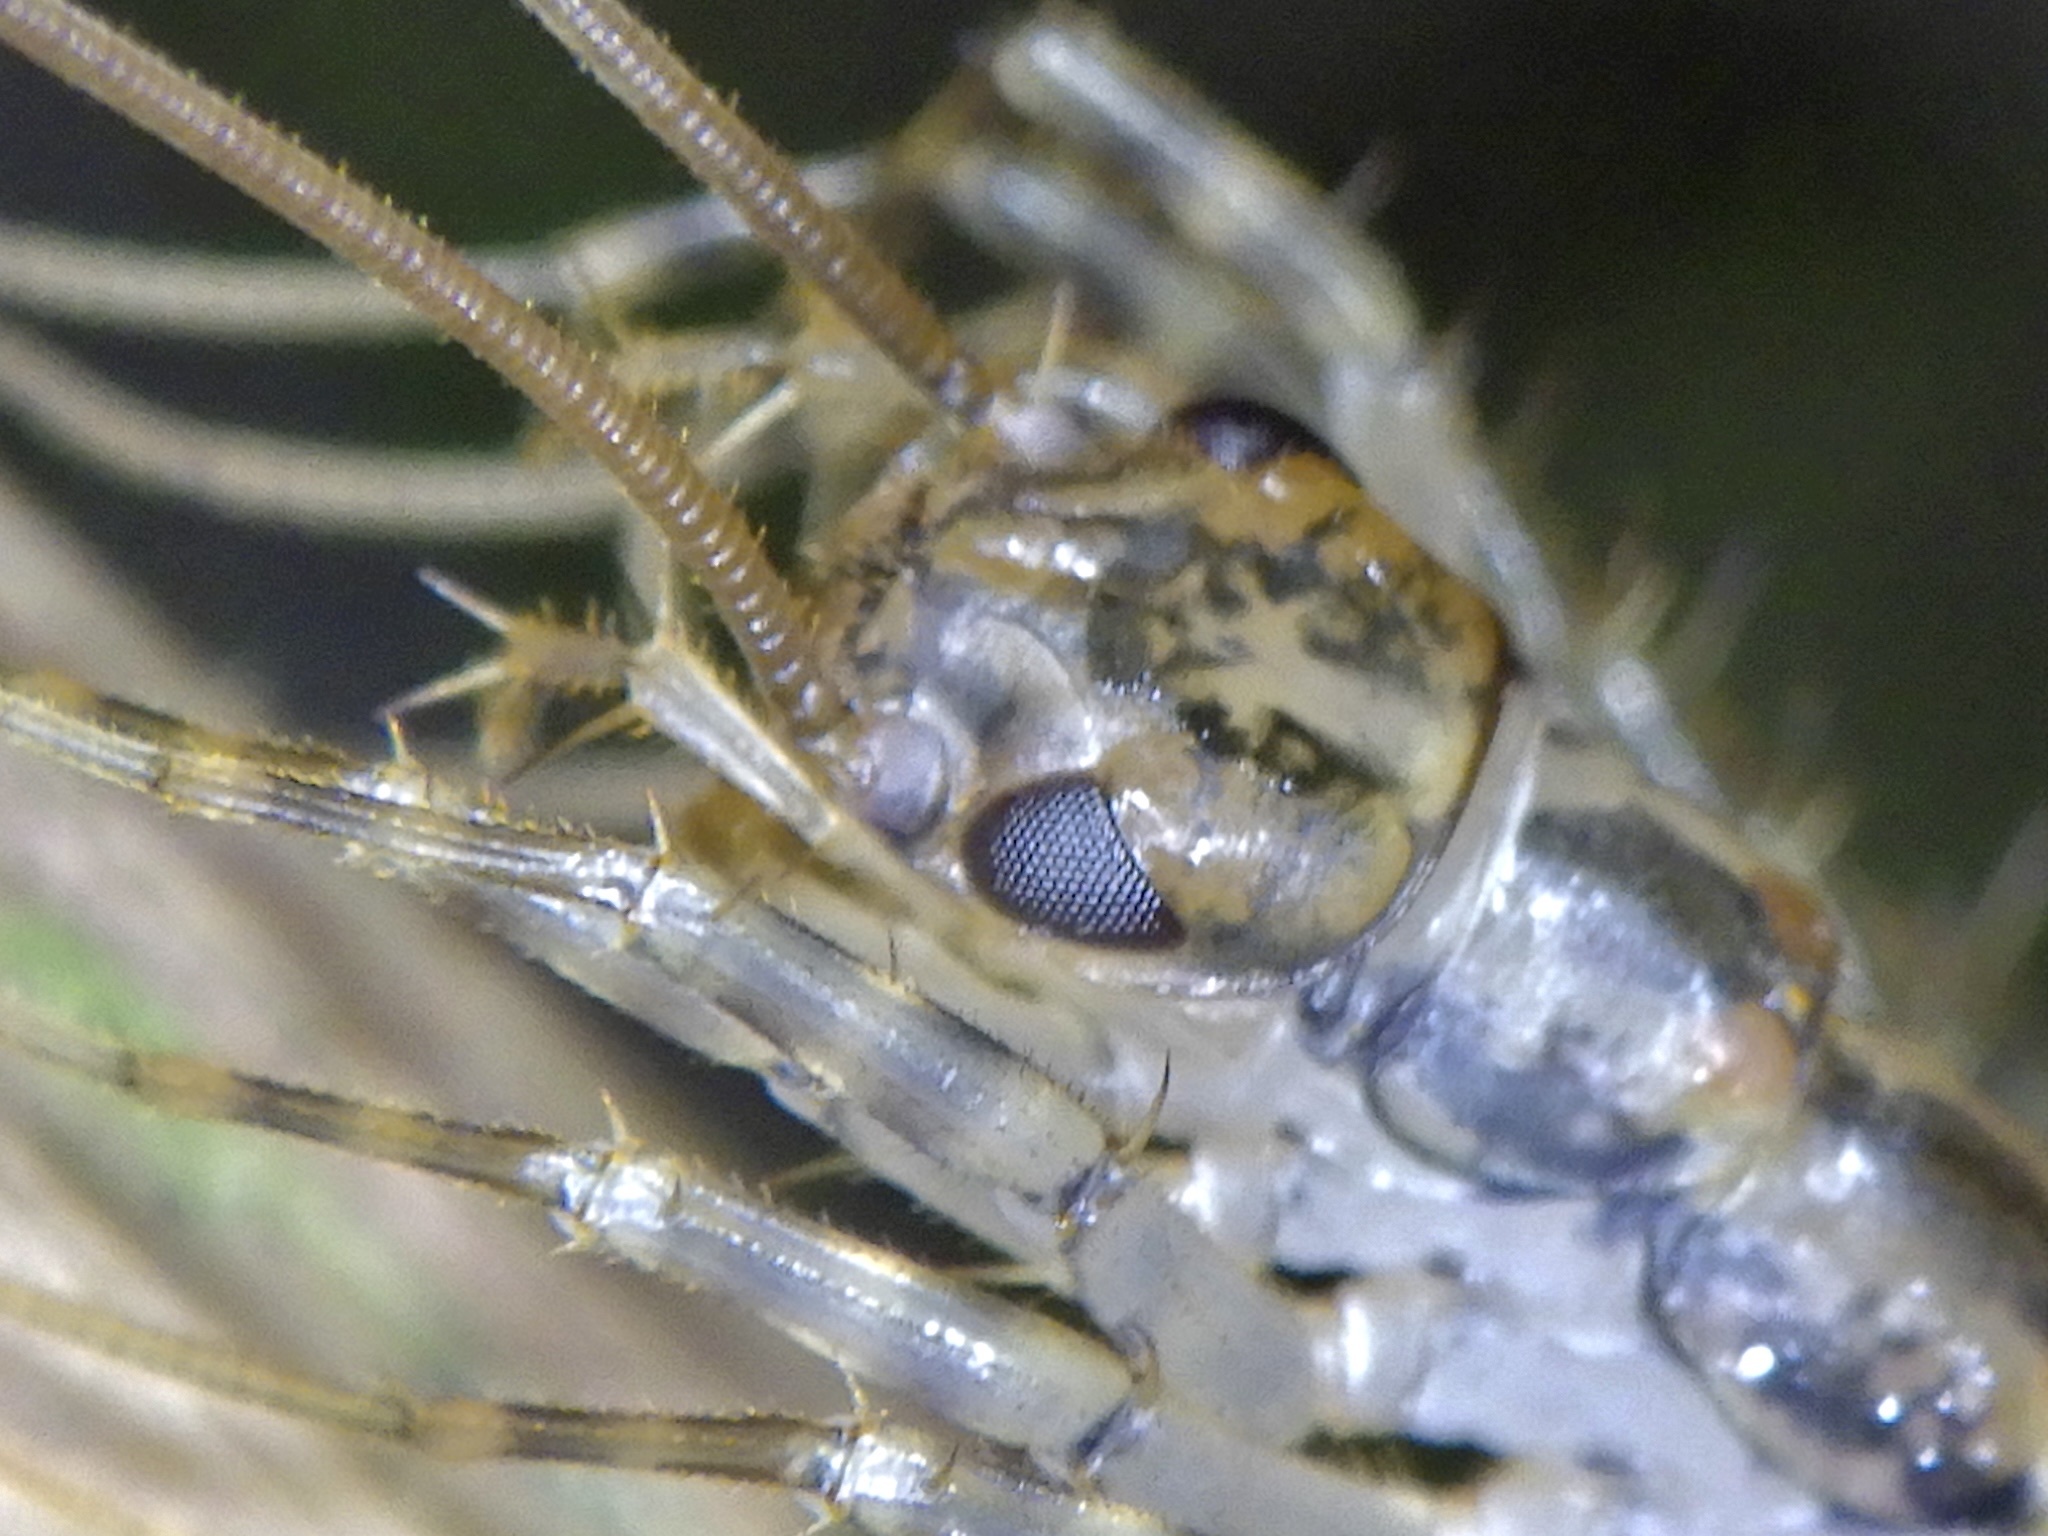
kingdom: Animalia
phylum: Arthropoda
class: Chilopoda
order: Scutigeromorpha
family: Scutigeridae
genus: Thereuonema
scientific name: Thereuonema tuberculata
